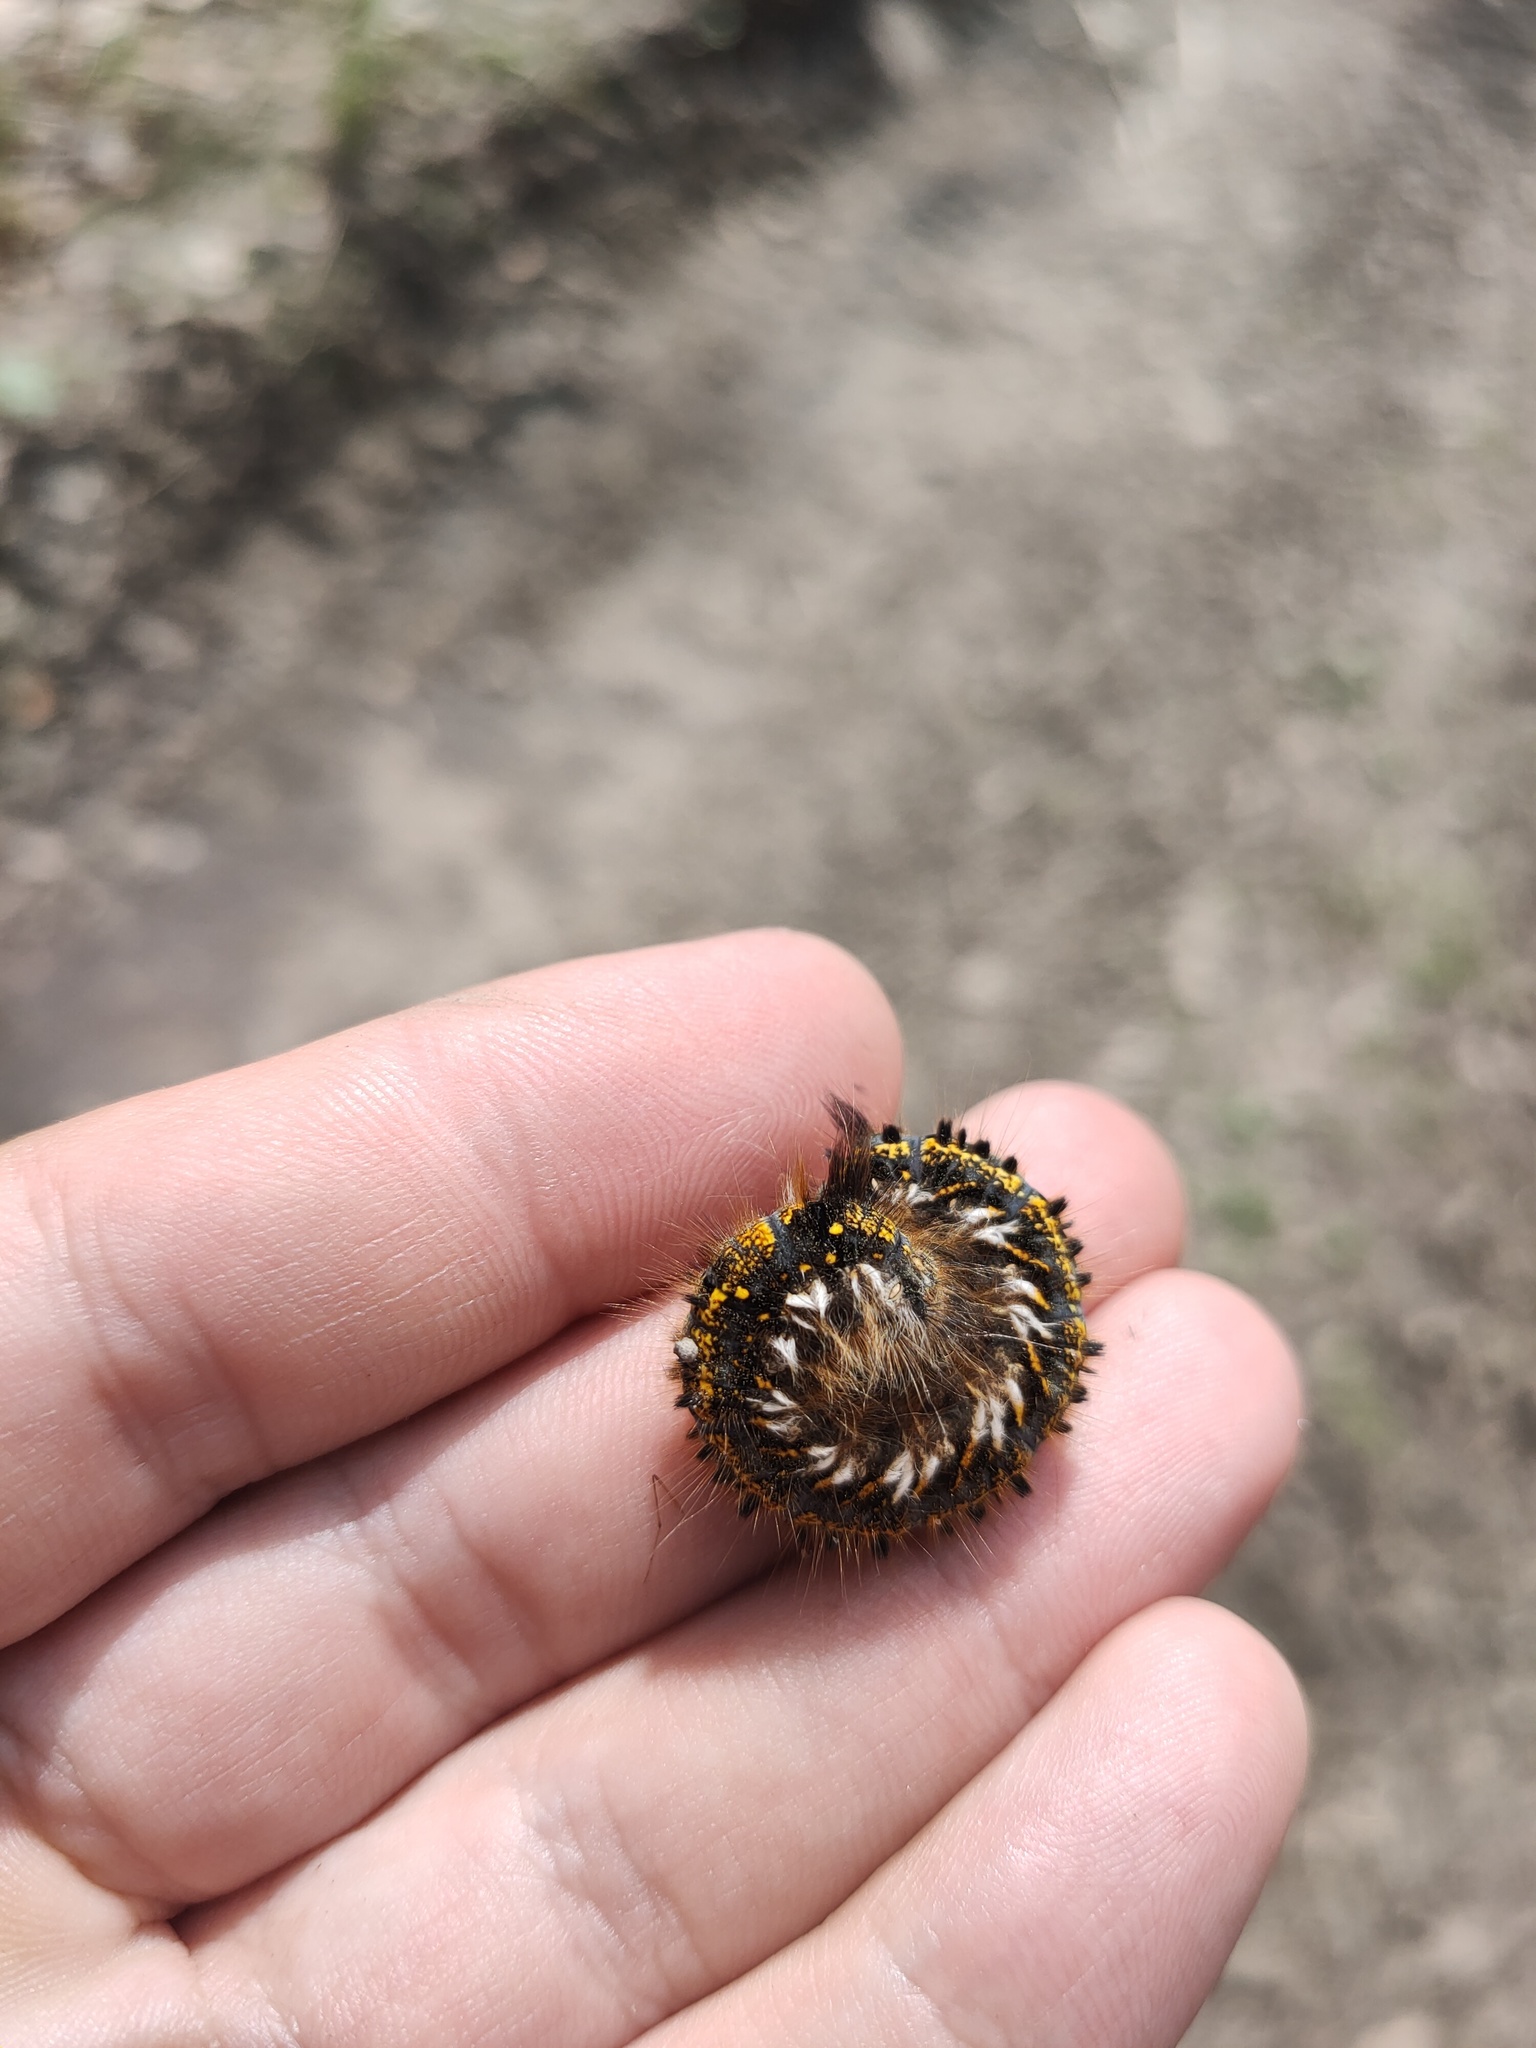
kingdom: Animalia
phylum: Arthropoda
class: Insecta
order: Lepidoptera
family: Lasiocampidae
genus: Euthrix
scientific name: Euthrix potatoria
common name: Drinker
